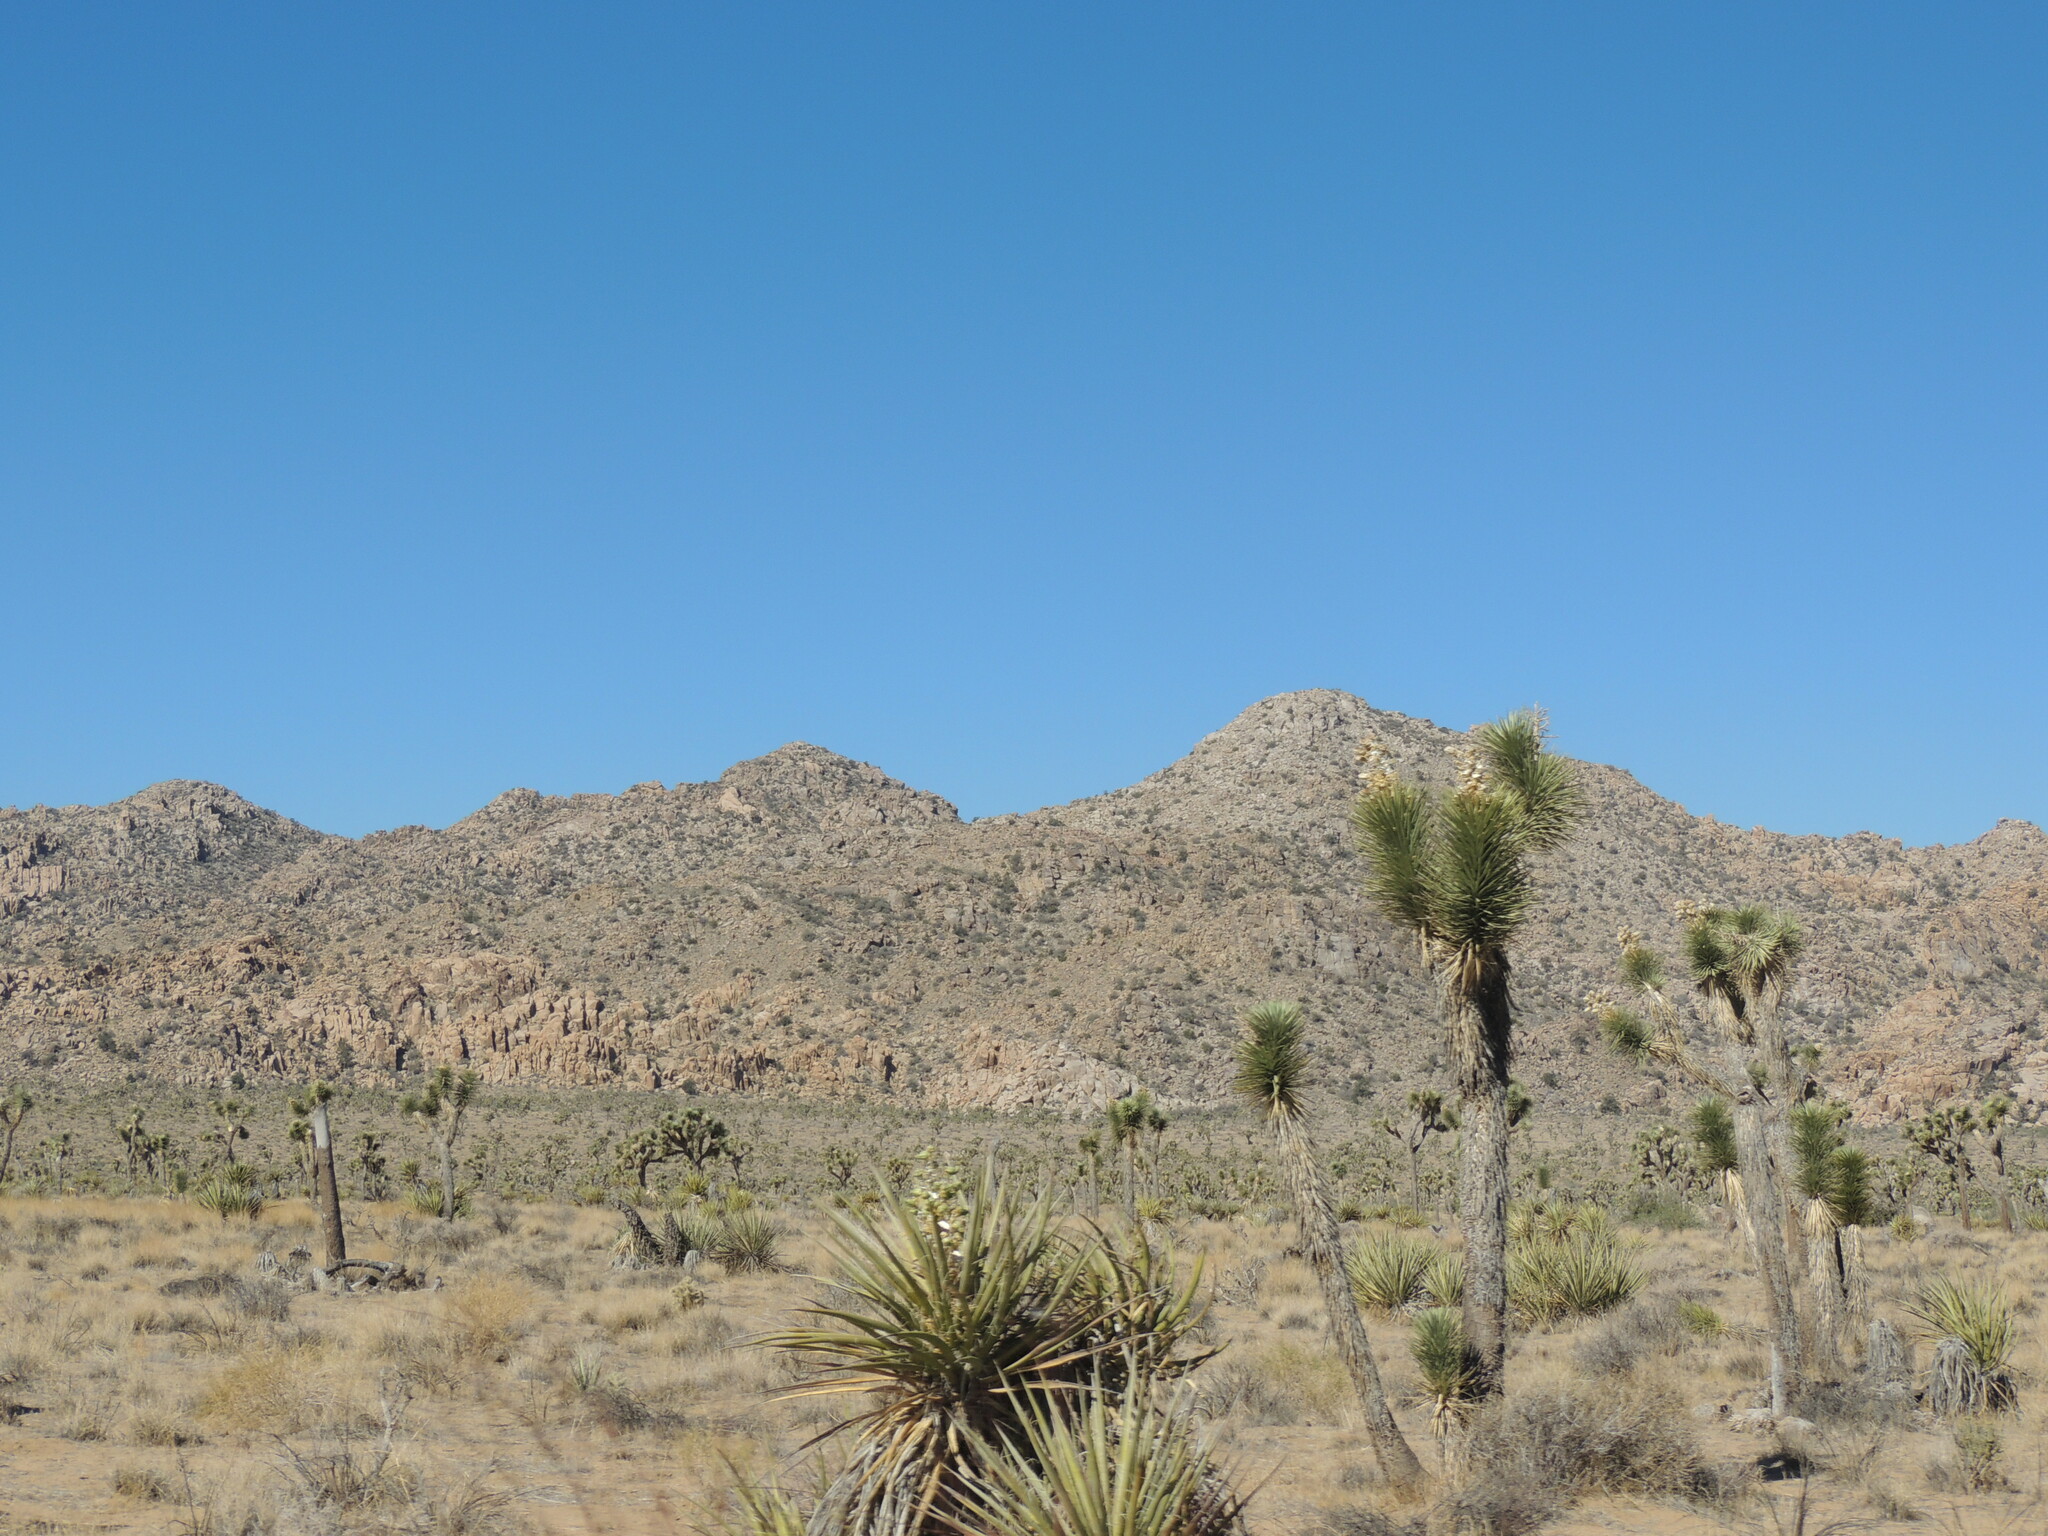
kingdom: Plantae
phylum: Tracheophyta
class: Liliopsida
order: Asparagales
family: Asparagaceae
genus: Yucca
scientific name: Yucca schidigera
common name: Mojave yucca
